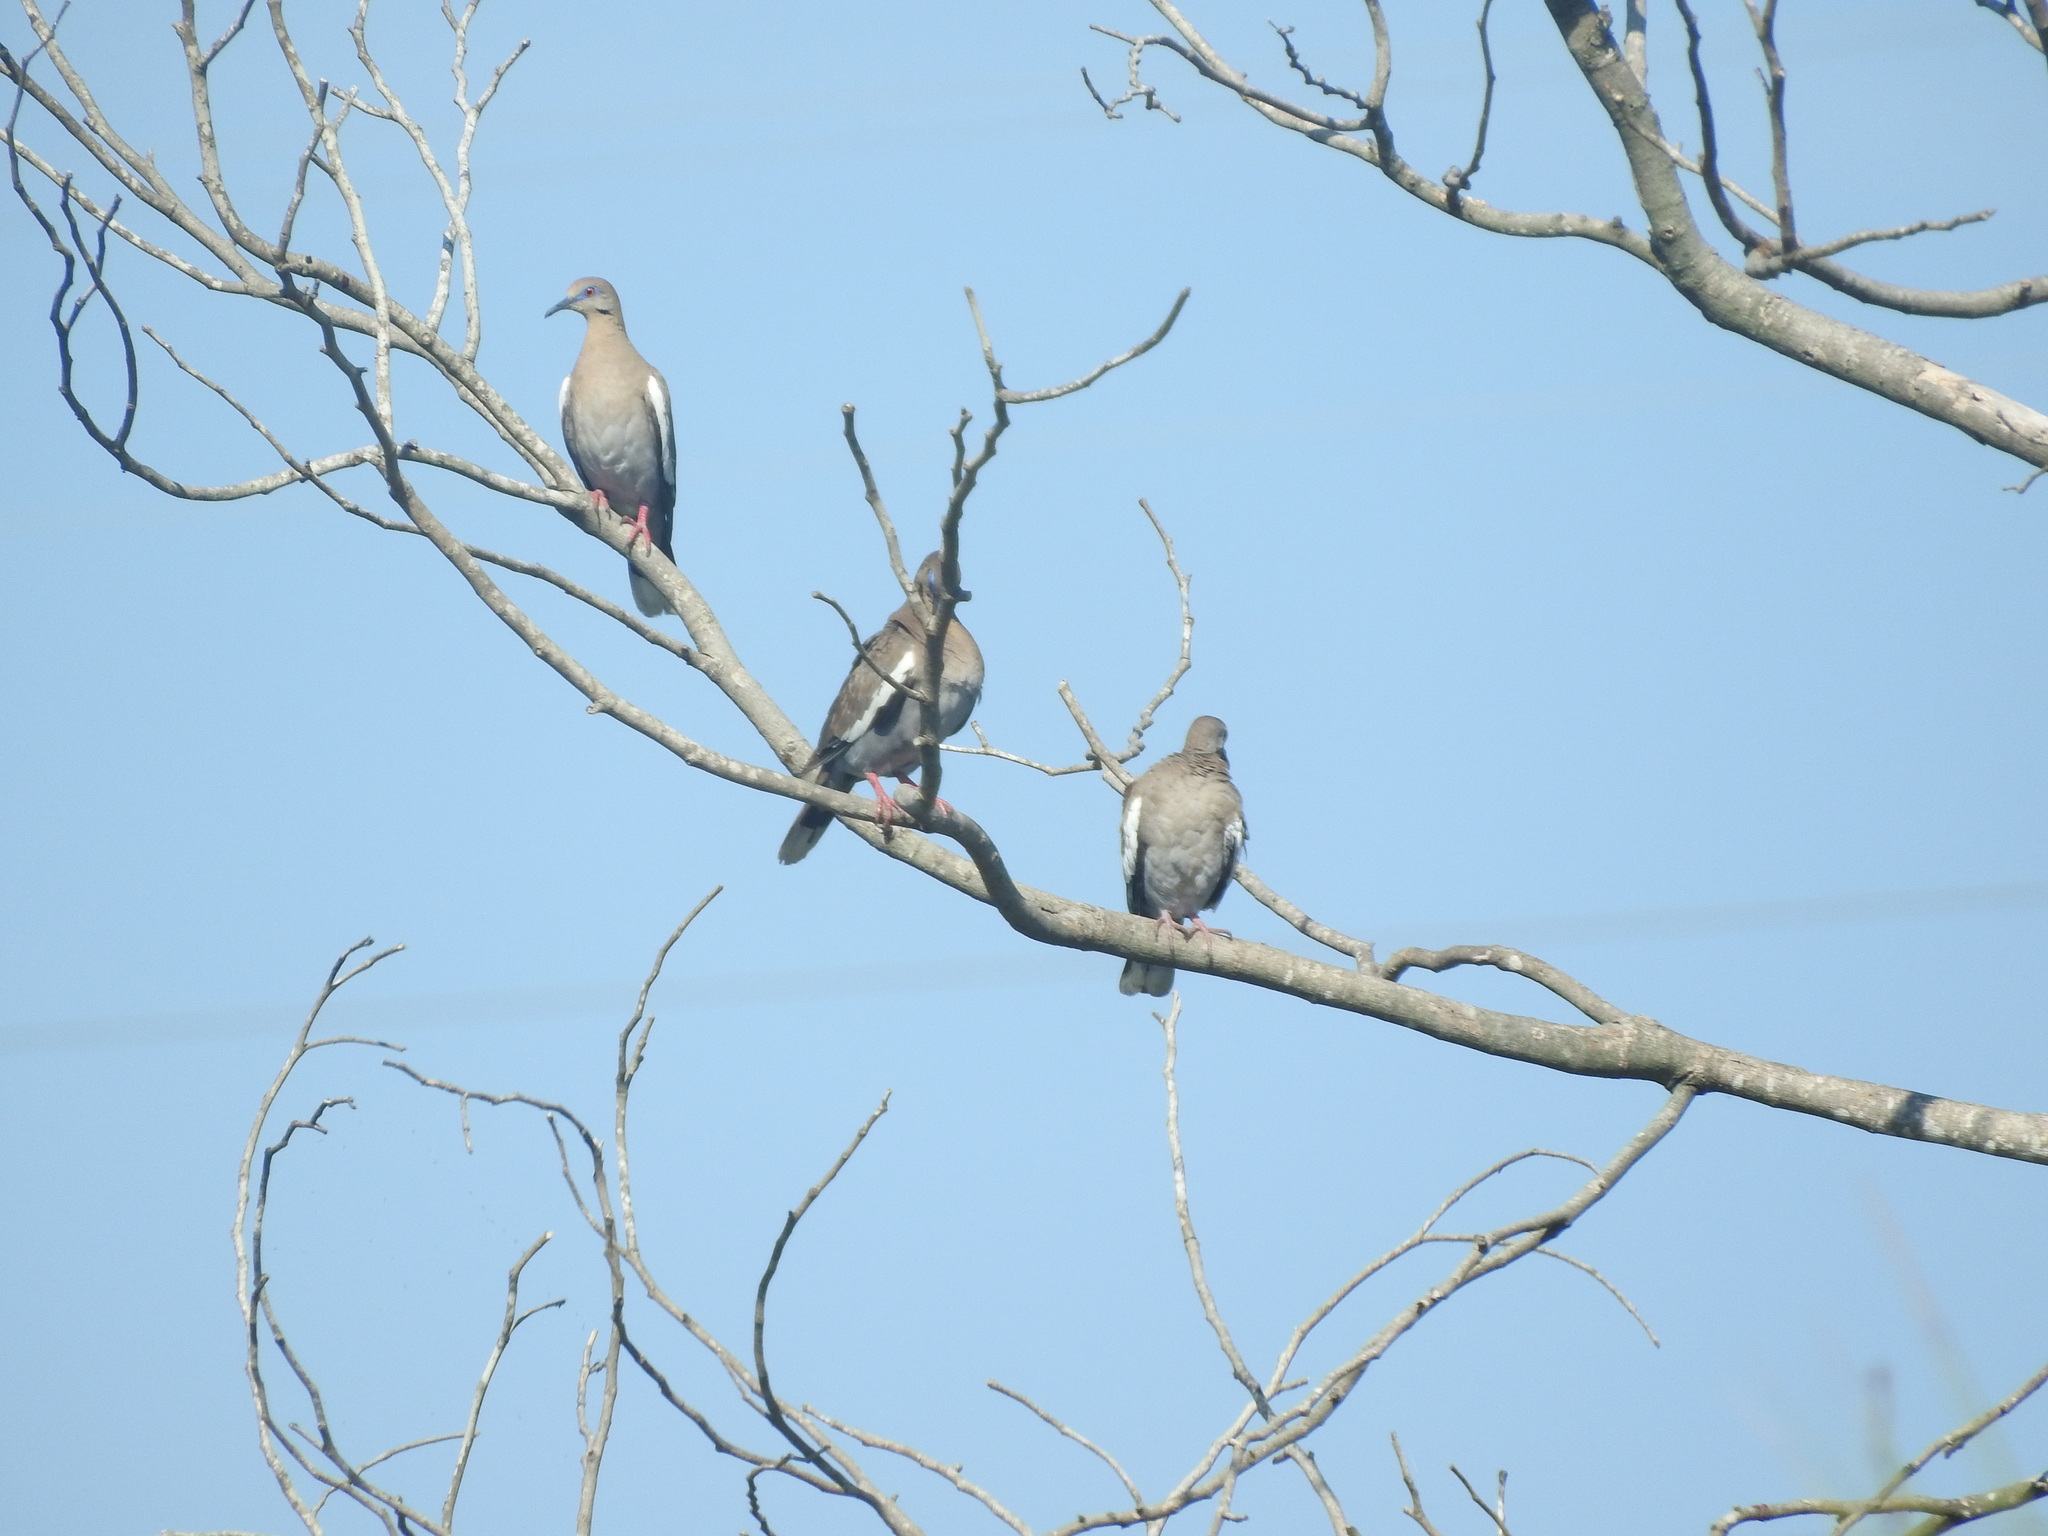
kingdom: Animalia
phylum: Chordata
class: Aves
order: Columbiformes
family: Columbidae
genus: Zenaida
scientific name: Zenaida asiatica
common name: White-winged dove
